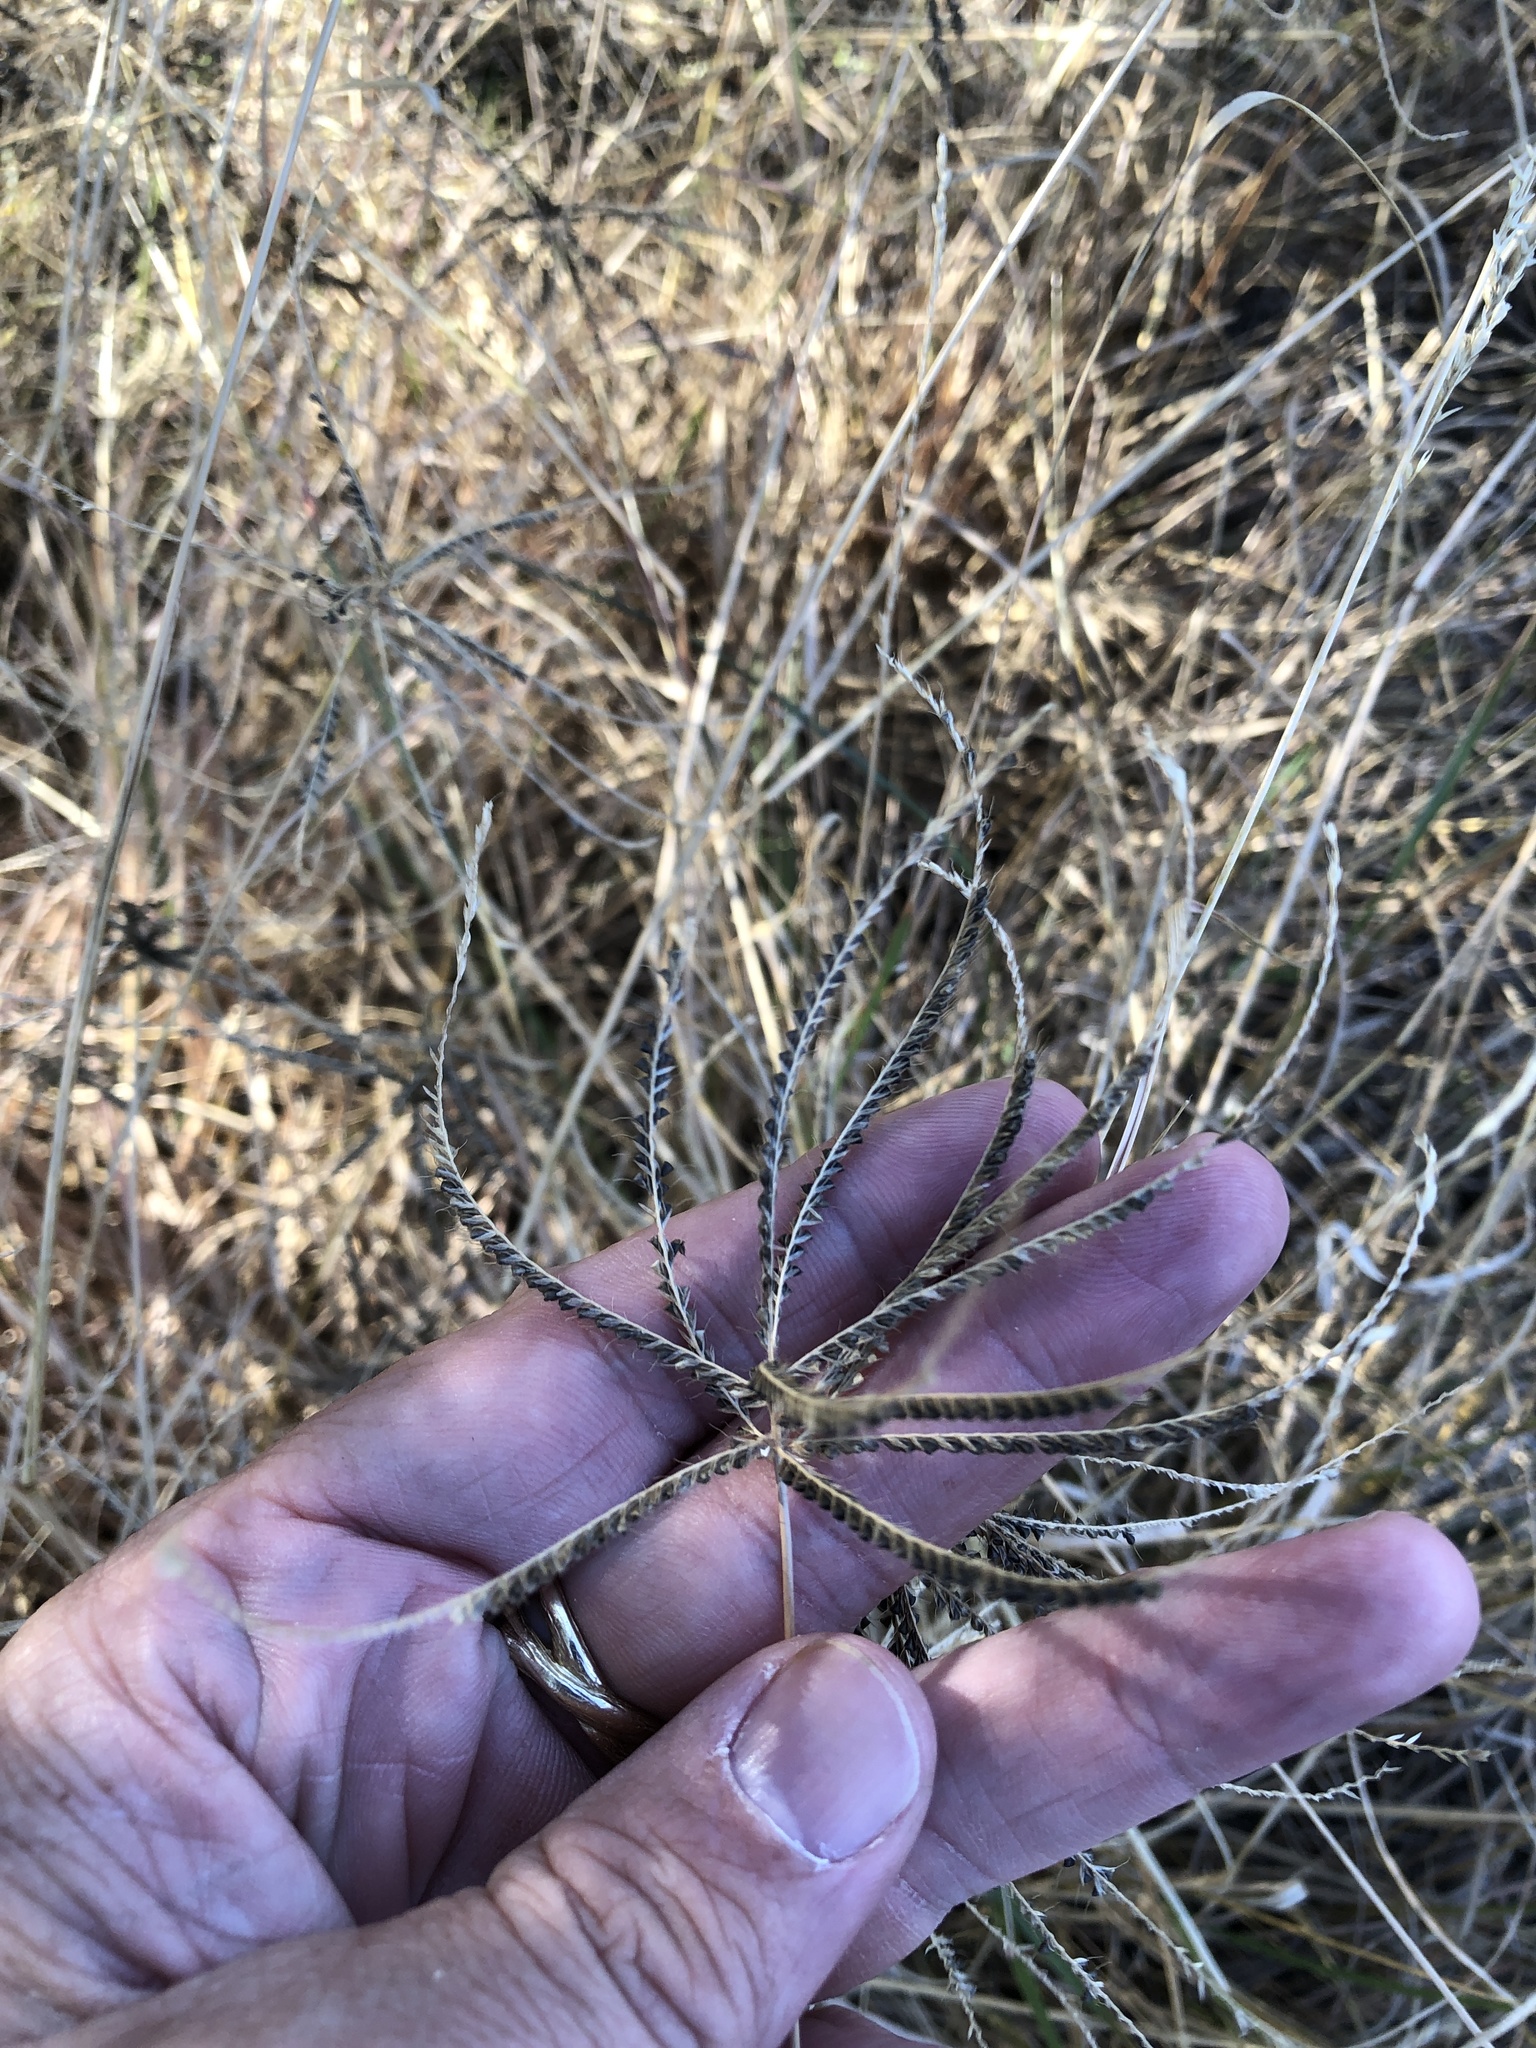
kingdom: Plantae
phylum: Tracheophyta
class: Liliopsida
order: Poales
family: Poaceae
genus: Chloris
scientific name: Chloris subdolichostachya
